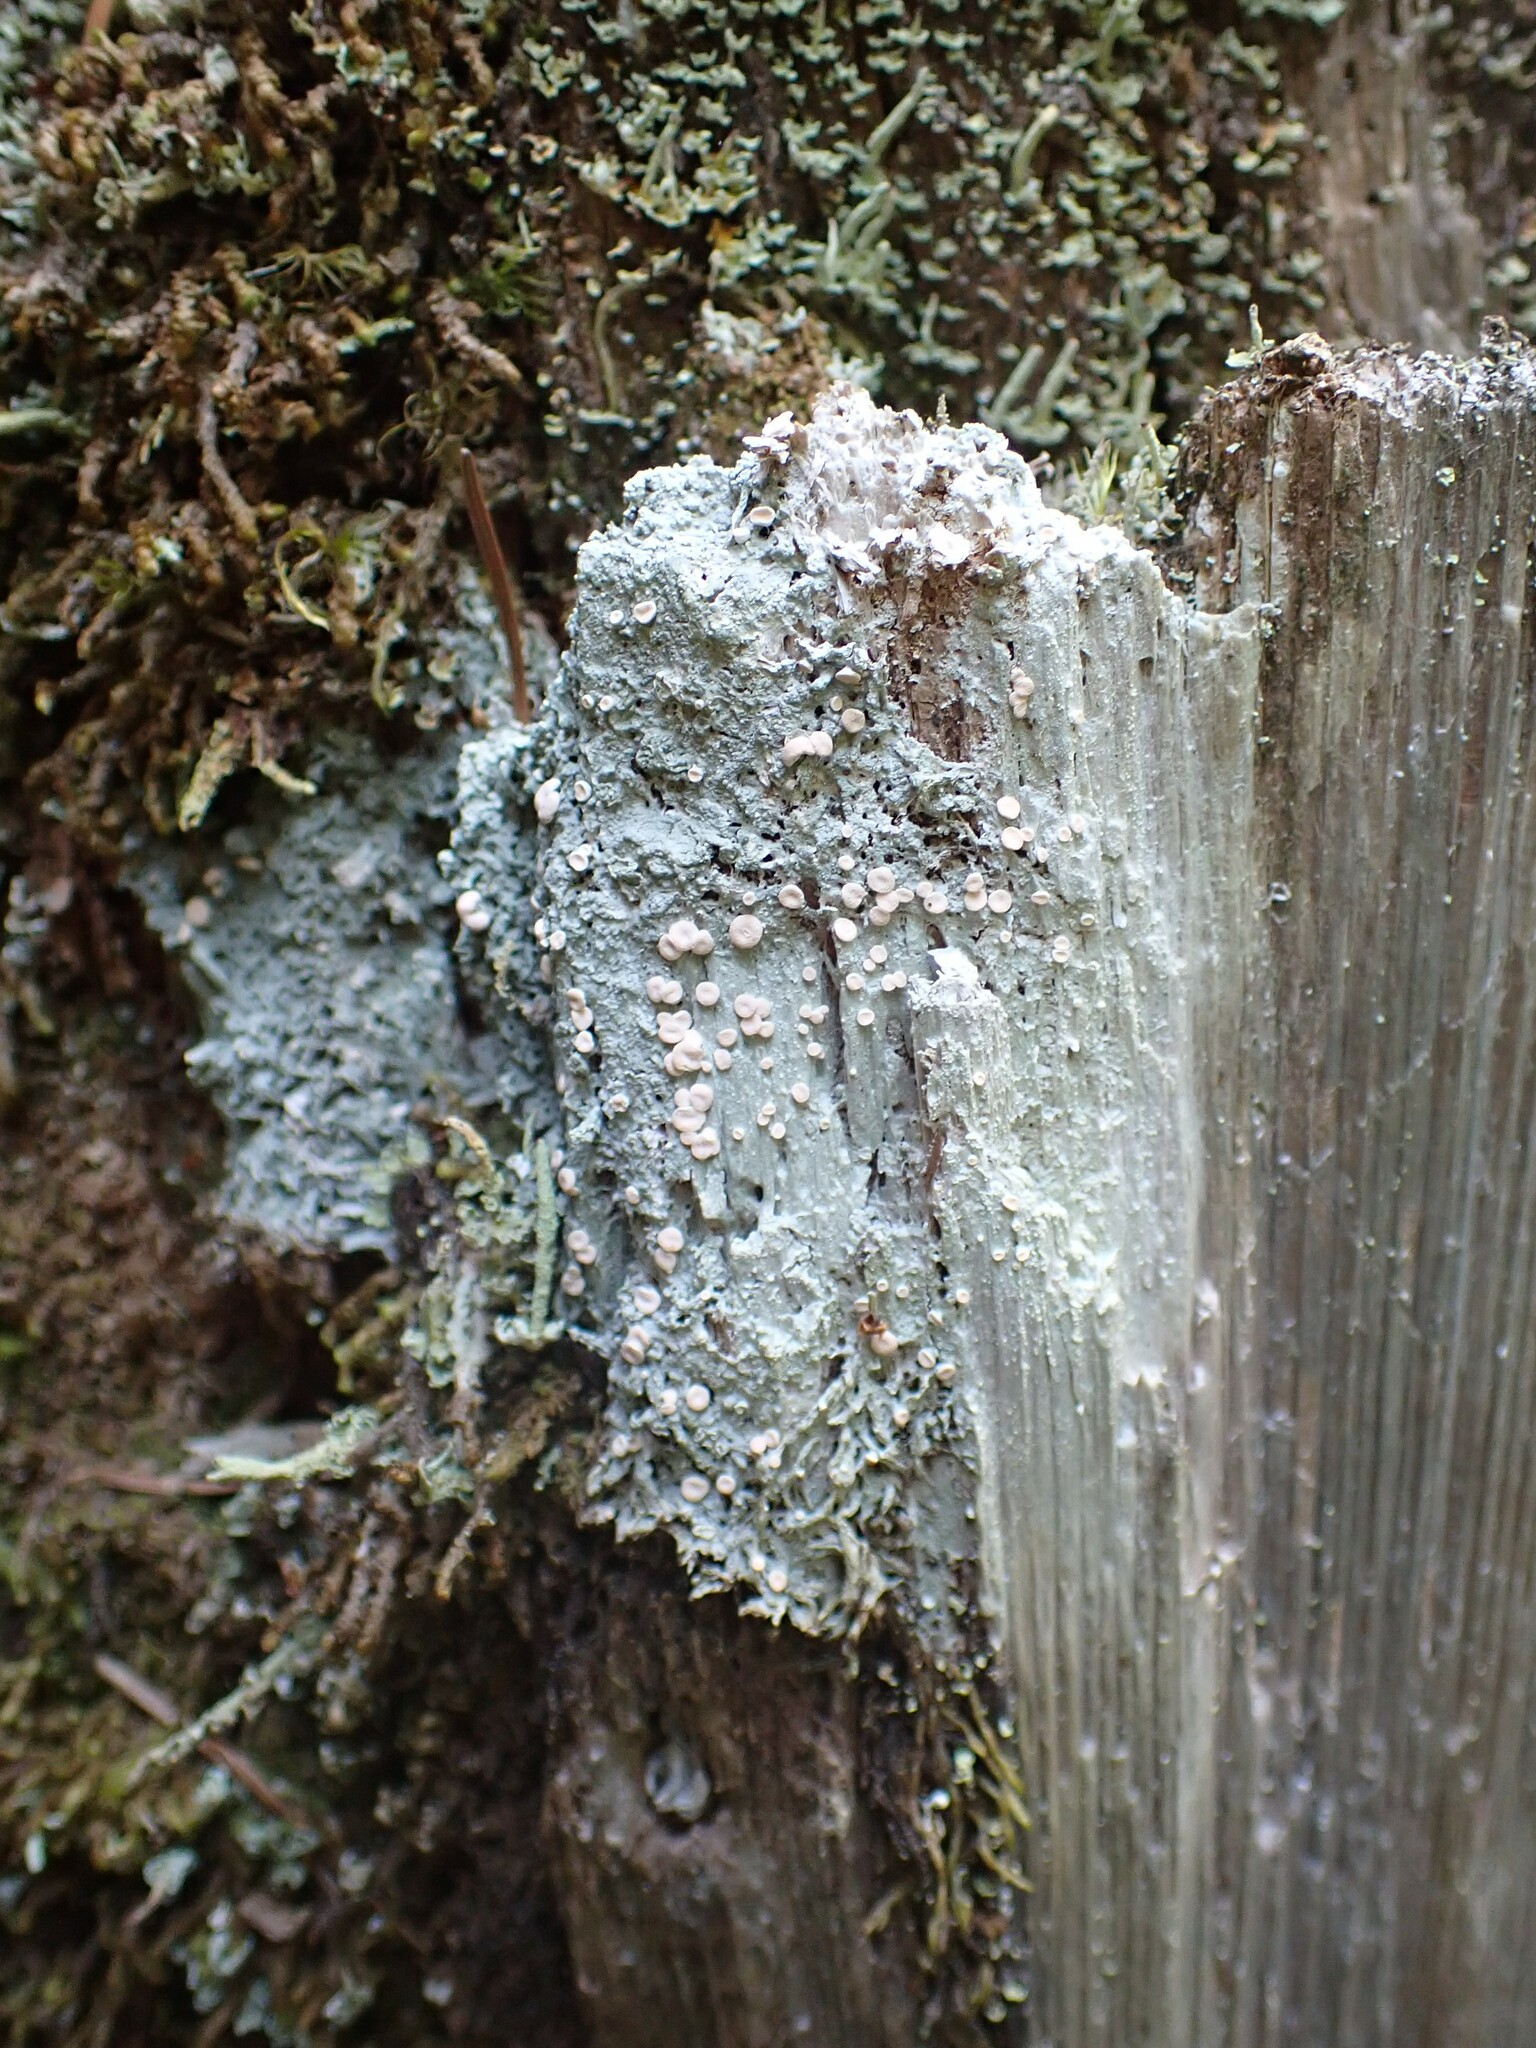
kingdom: Fungi
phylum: Ascomycota
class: Lecanoromycetes
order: Pertusariales
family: Icmadophilaceae
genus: Icmadophila
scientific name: Icmadophila ericetorum
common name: Candy lichen
